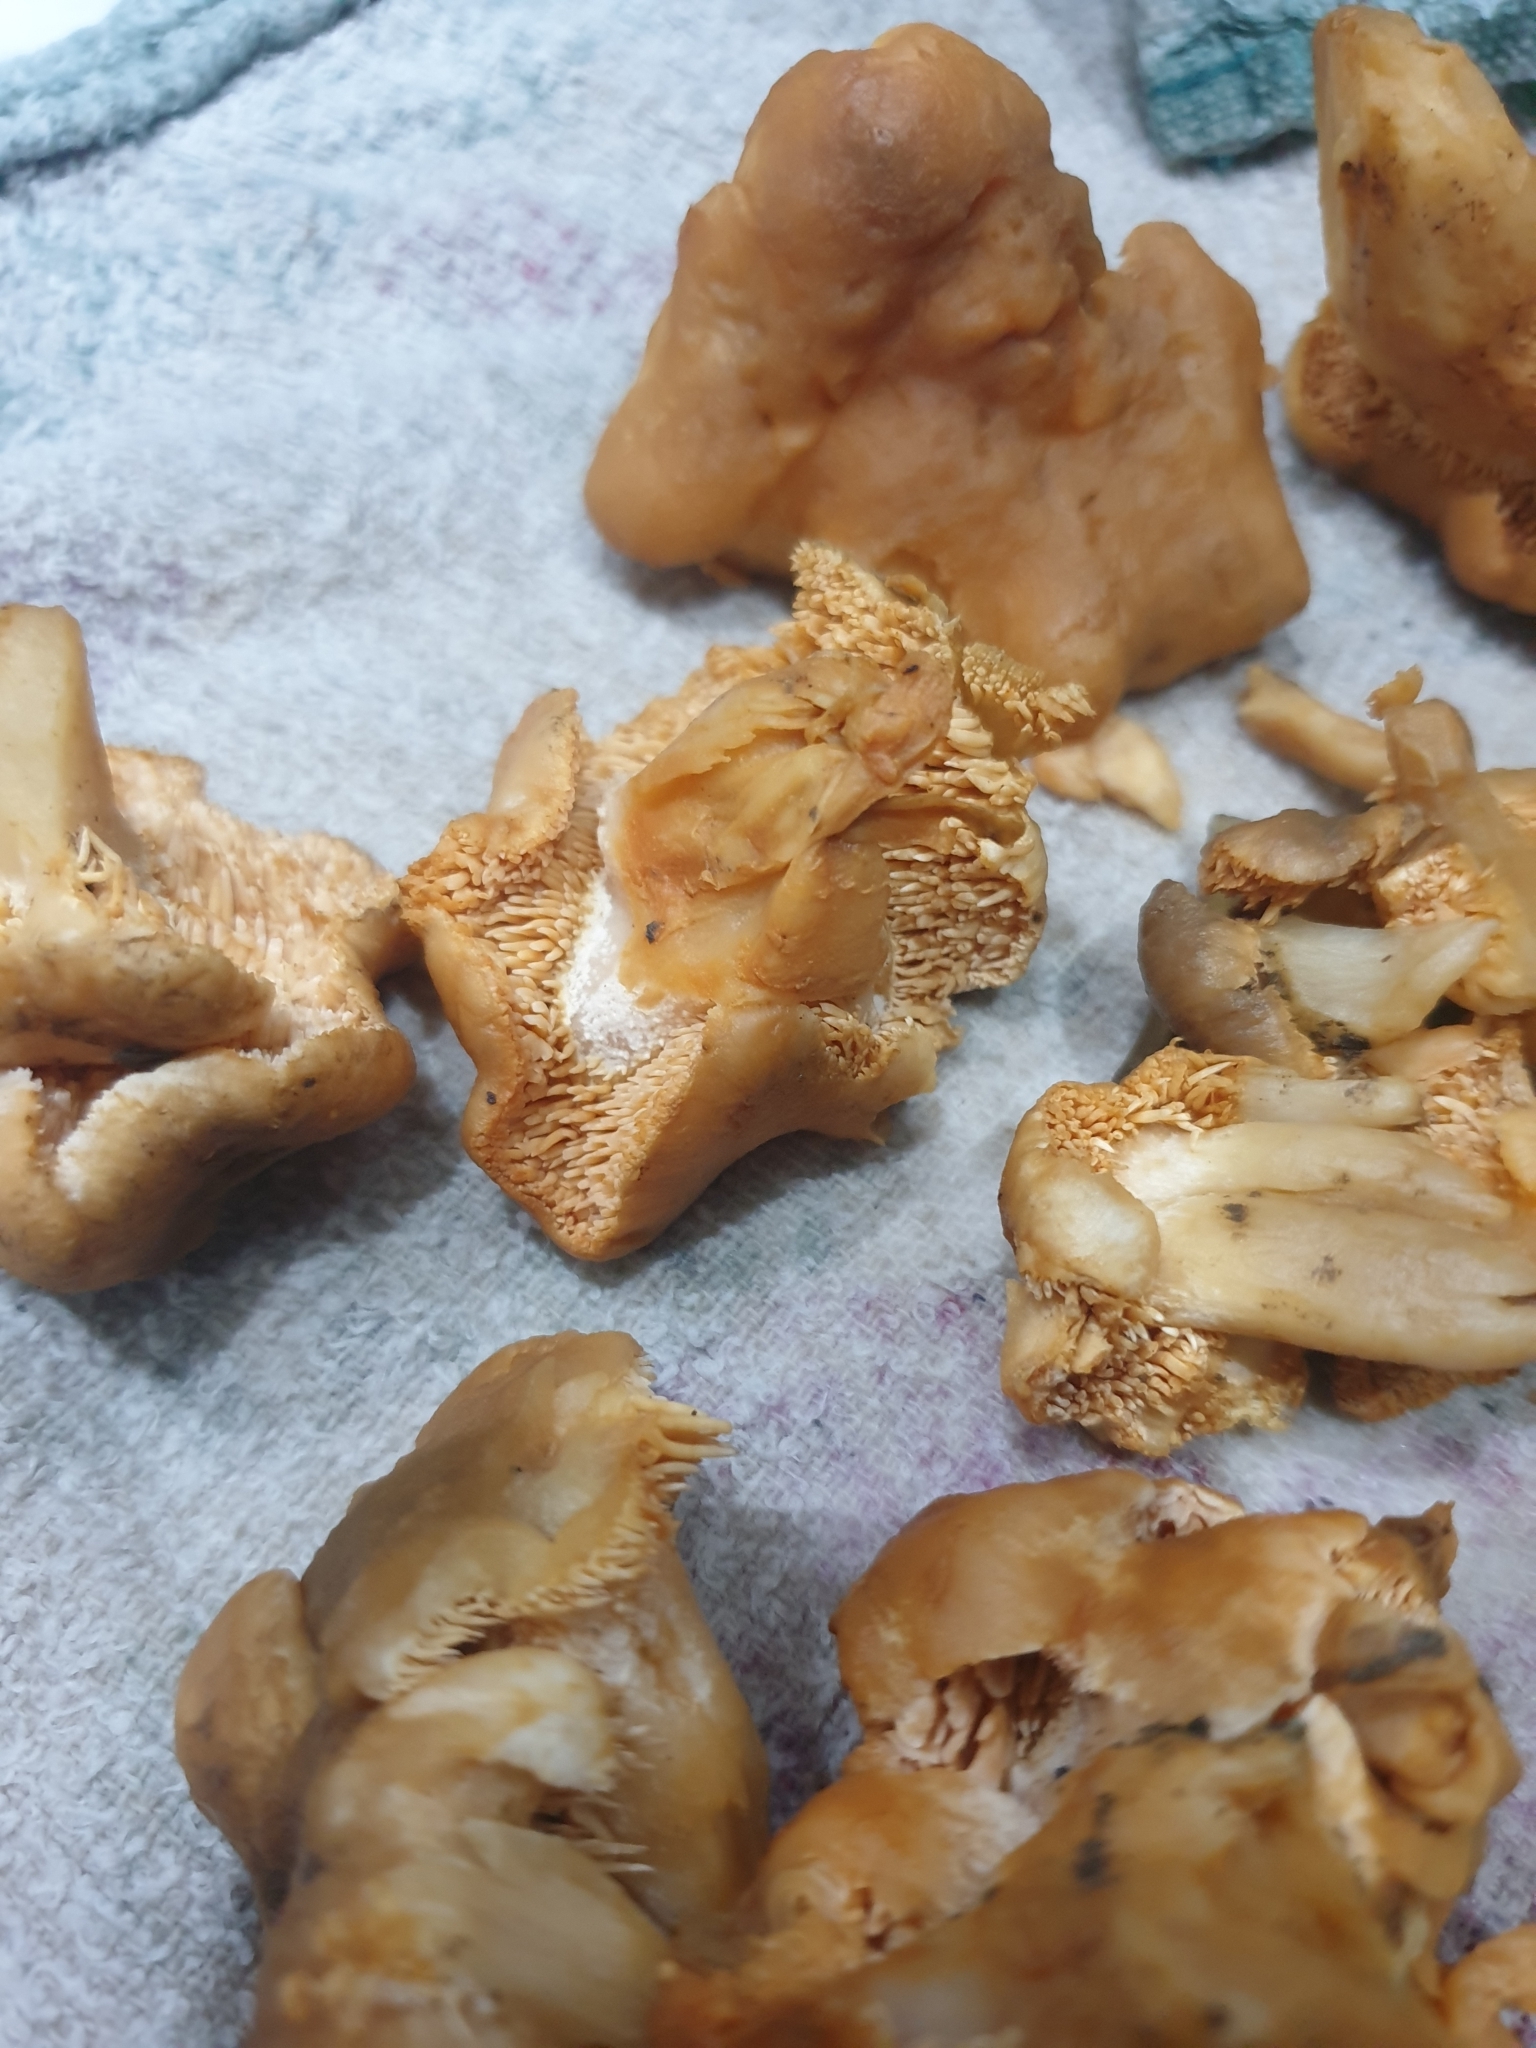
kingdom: Fungi
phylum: Basidiomycota
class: Agaricomycetes
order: Cantharellales
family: Hydnaceae
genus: Hydnum
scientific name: Hydnum repandum
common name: Wood hedgehog
